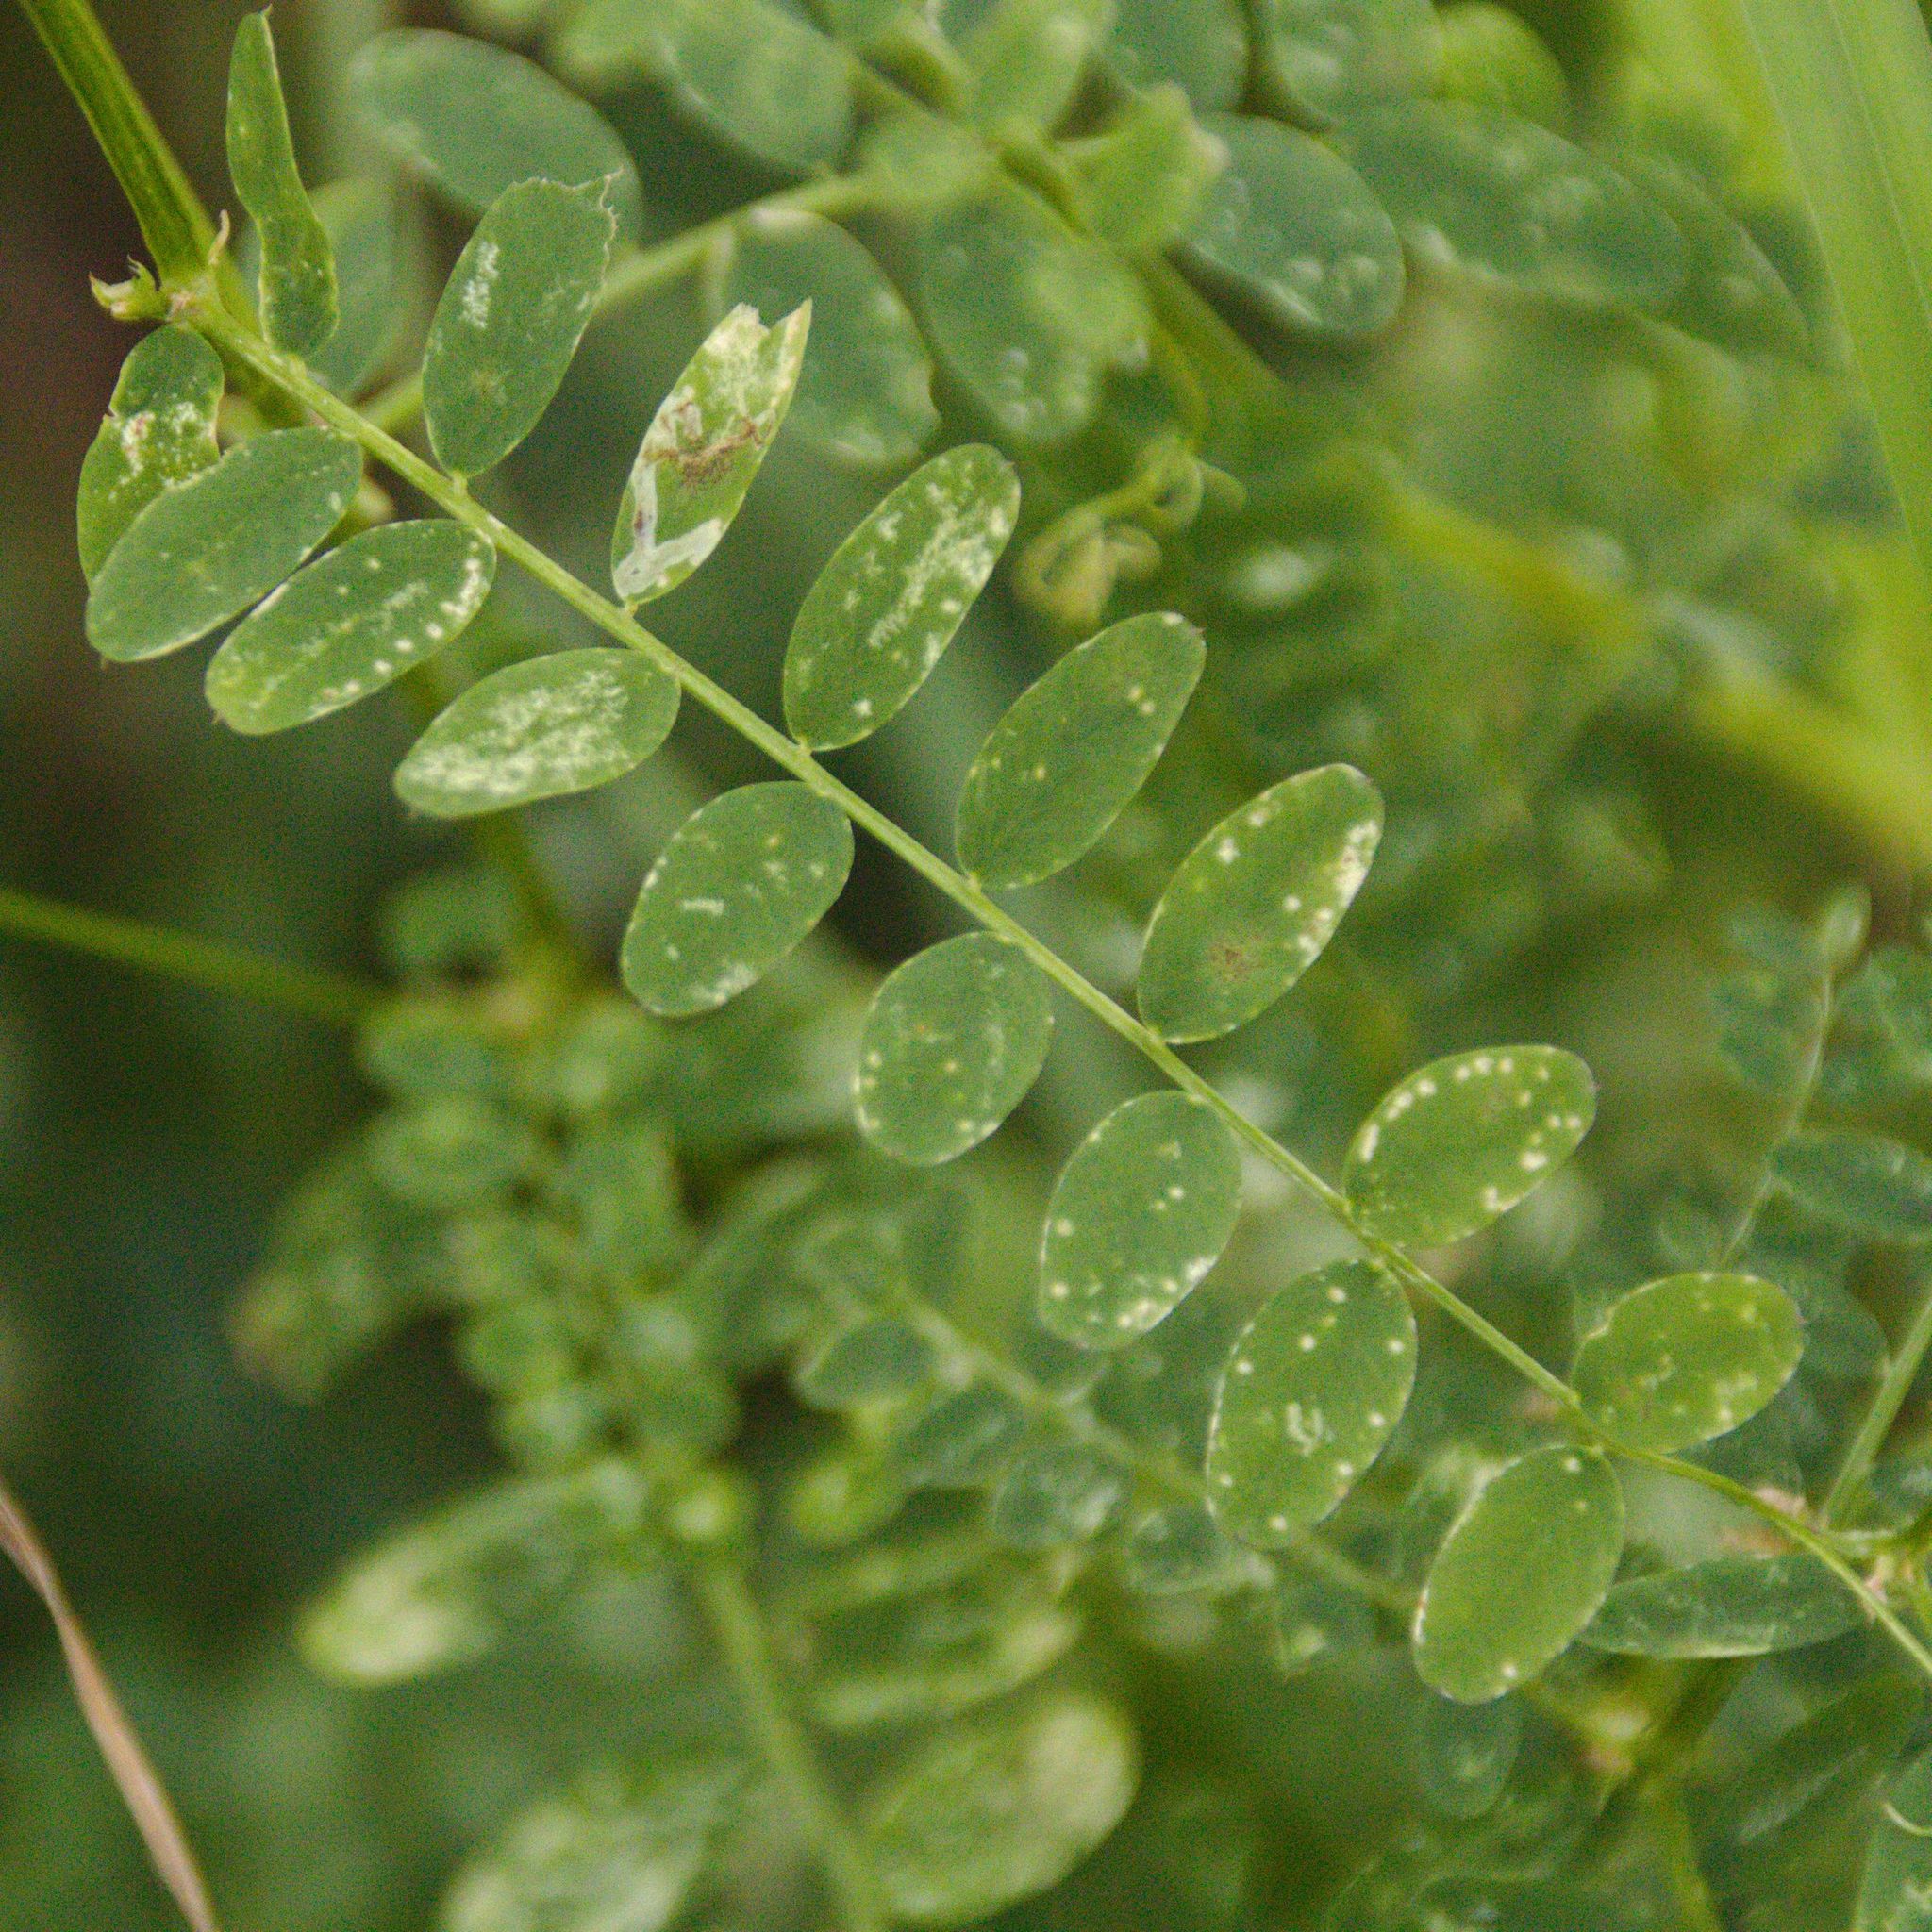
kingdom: Plantae
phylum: Tracheophyta
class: Magnoliopsida
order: Fabales
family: Fabaceae
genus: Vicia
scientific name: Vicia sylvatica
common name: Wood vetch
